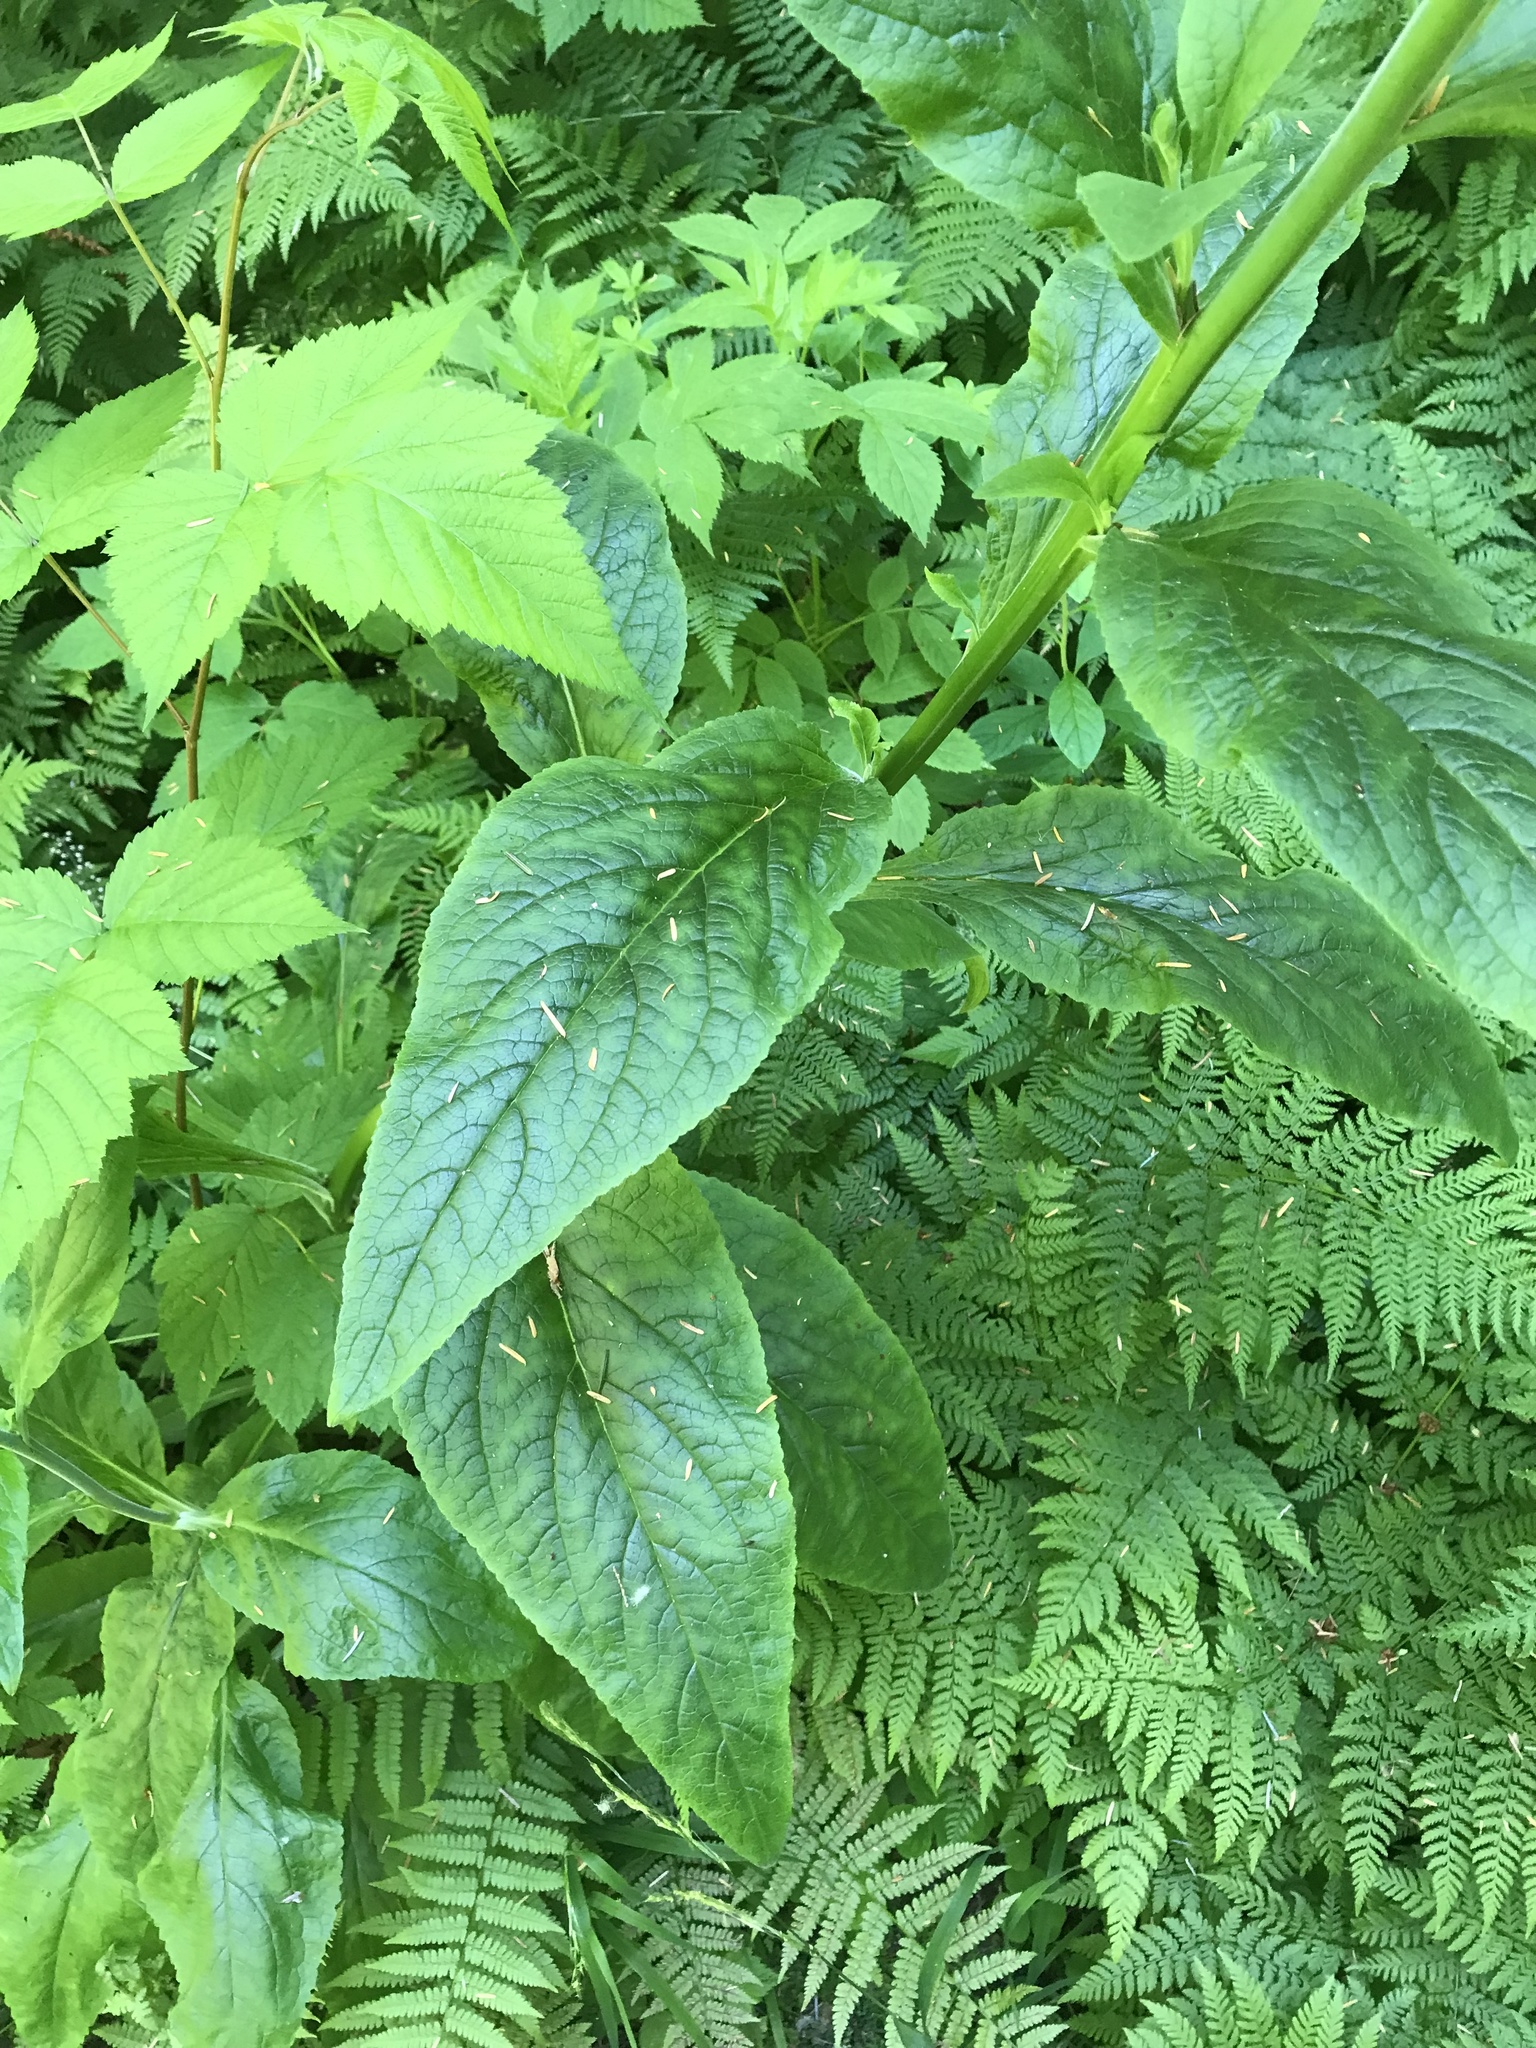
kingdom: Plantae
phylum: Tracheophyta
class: Magnoliopsida
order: Lamiales
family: Plantaginaceae
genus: Digitalis
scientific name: Digitalis purpurea
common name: Foxglove
